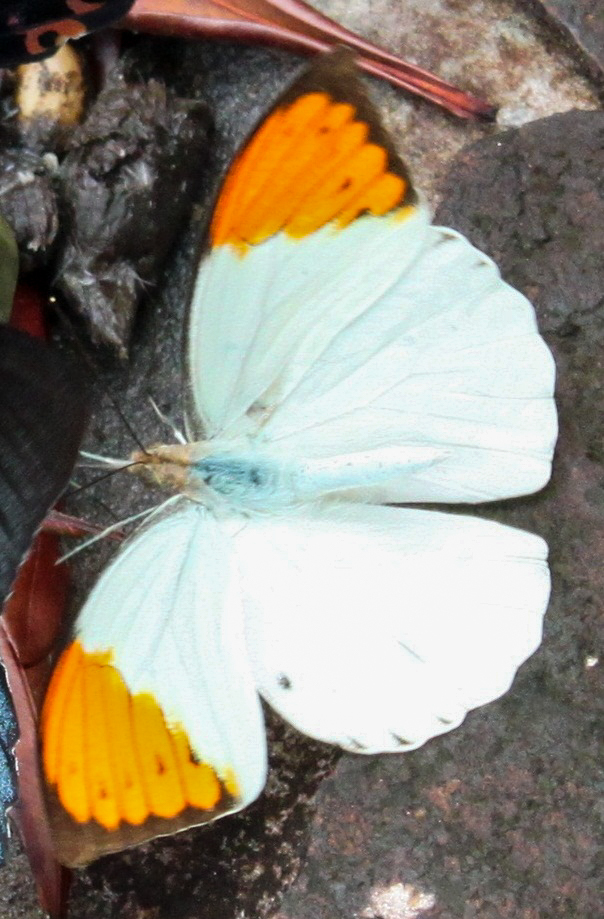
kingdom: Animalia
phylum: Arthropoda
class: Insecta
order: Lepidoptera
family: Pieridae
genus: Hebomoia
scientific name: Hebomoia glaucippe
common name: Great orange tip
